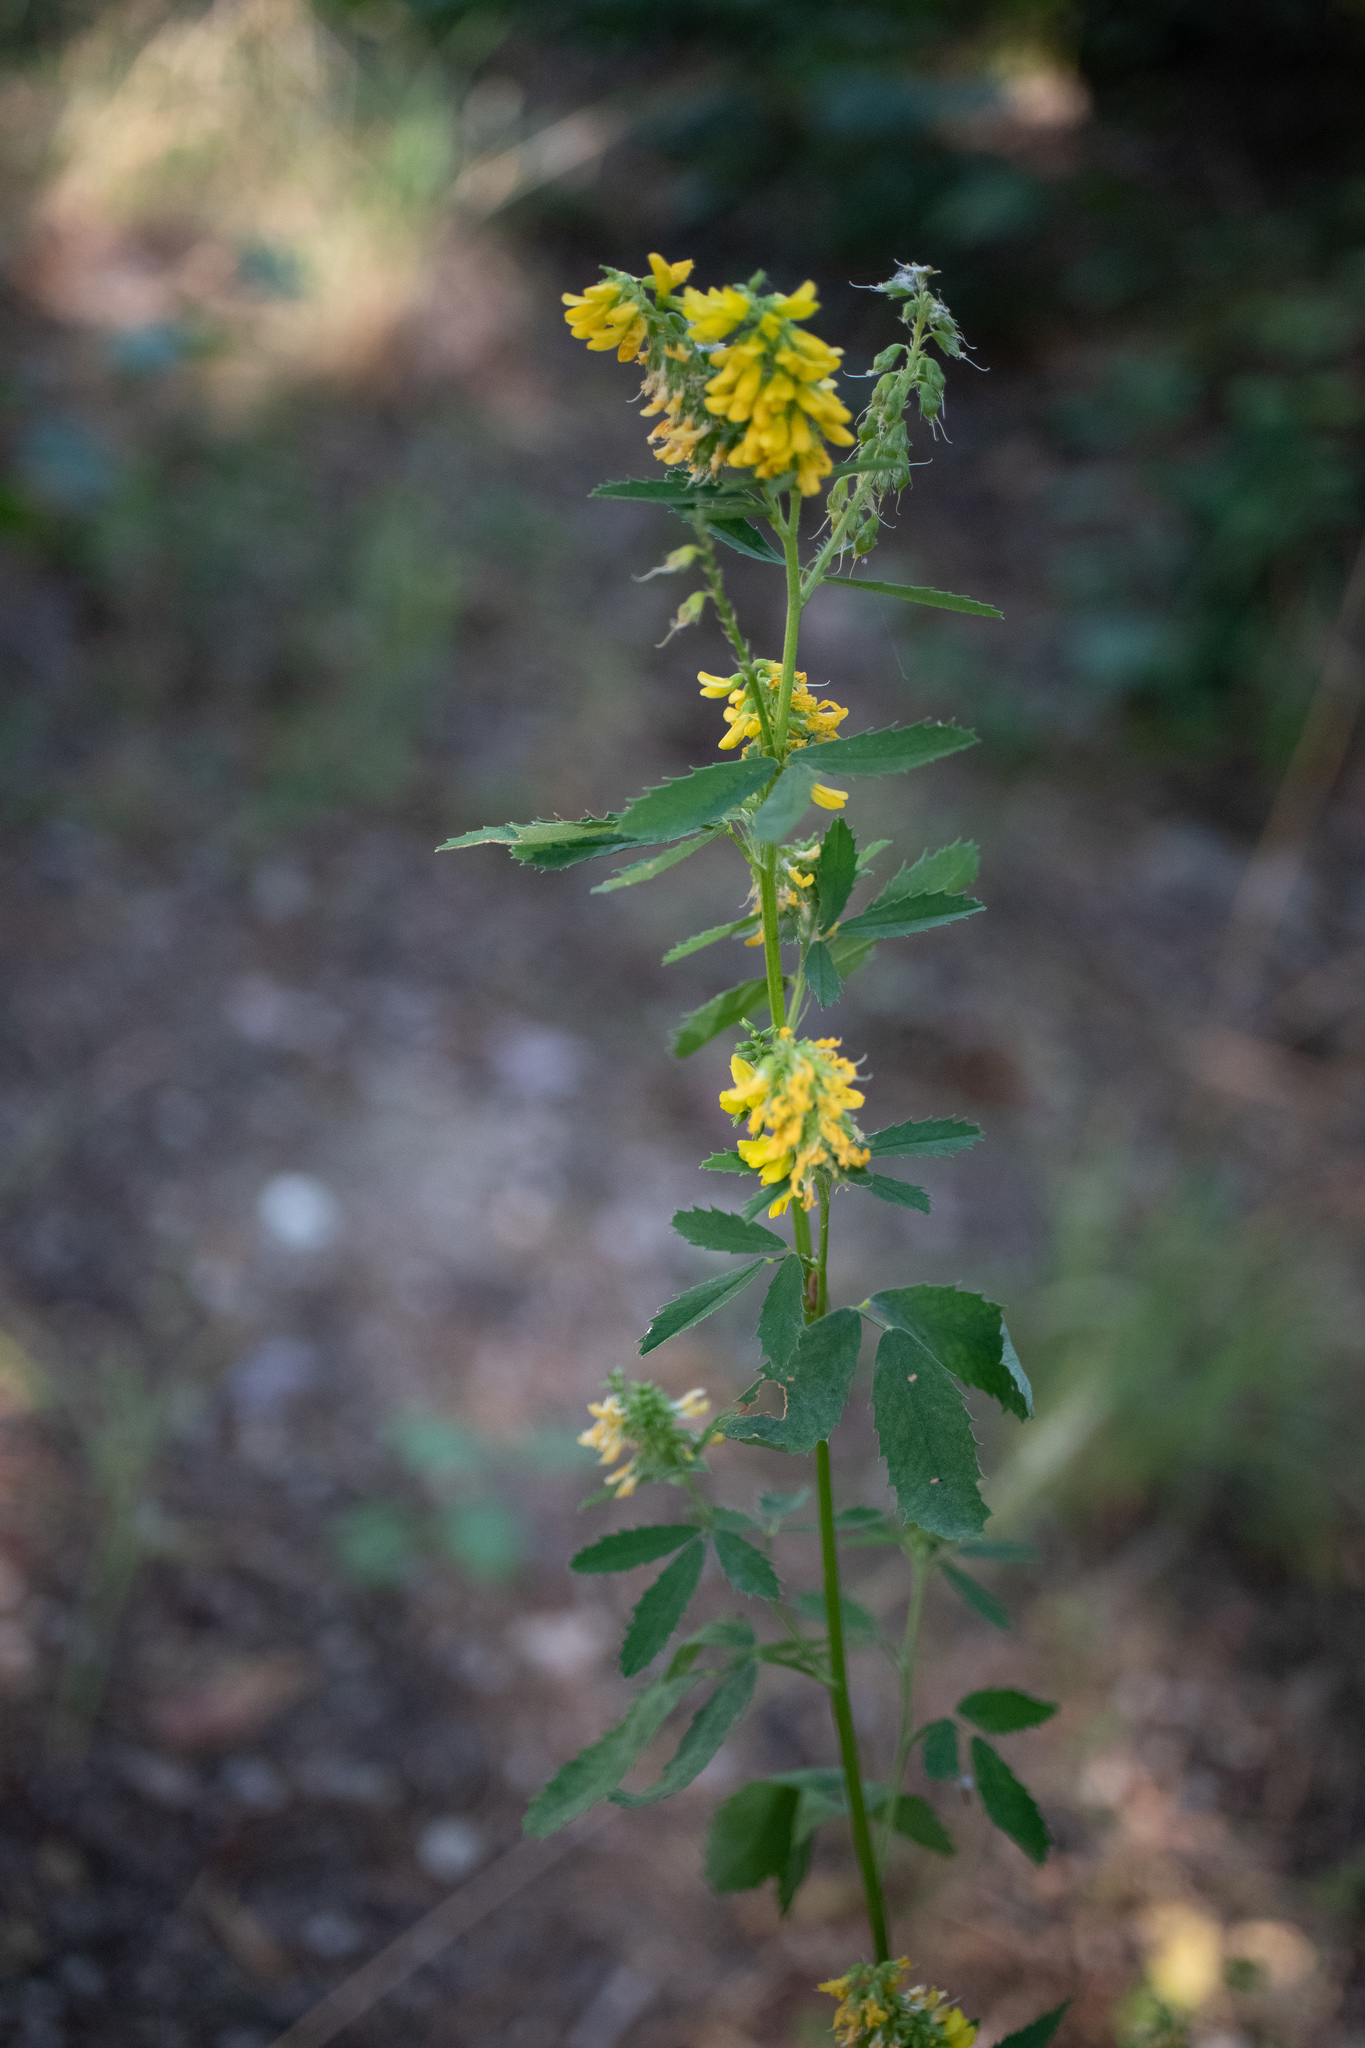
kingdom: Plantae
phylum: Tracheophyta
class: Magnoliopsida
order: Fabales
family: Fabaceae
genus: Melilotus
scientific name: Melilotus officinalis
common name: Sweetclover
